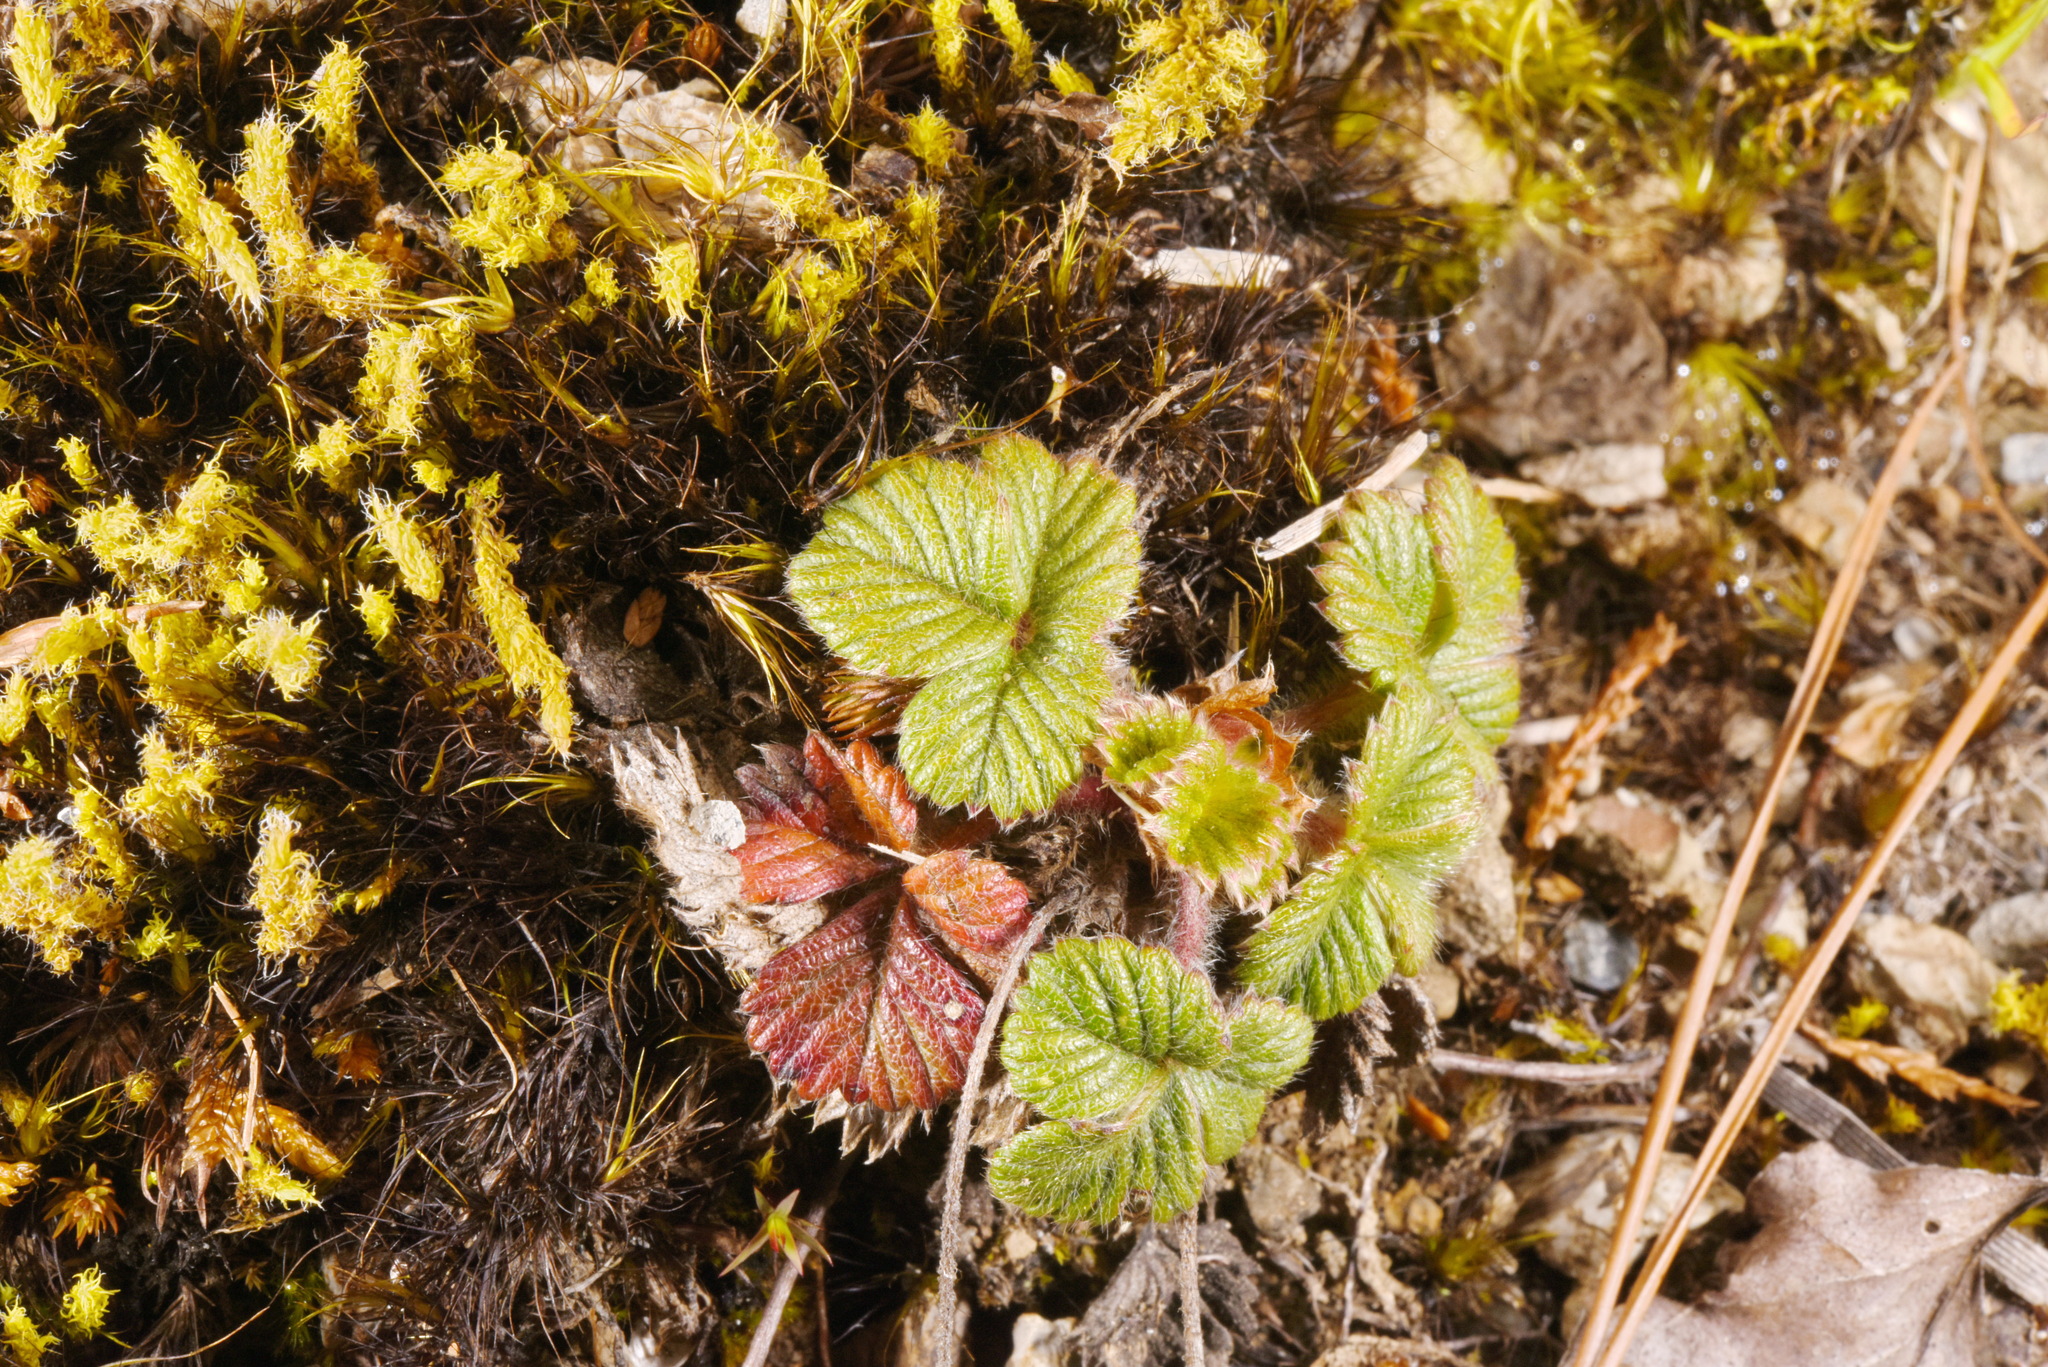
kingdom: Plantae
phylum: Tracheophyta
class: Magnoliopsida
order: Rosales
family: Rosaceae
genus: Fragaria
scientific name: Fragaria nilgerrensis
